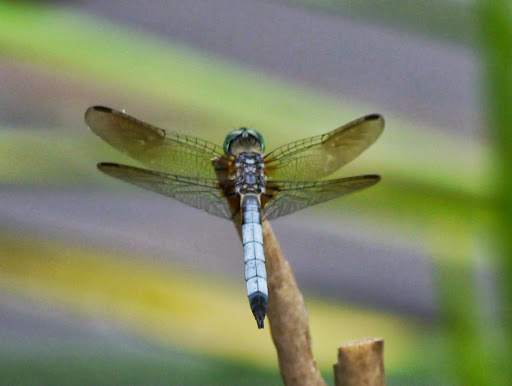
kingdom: Animalia
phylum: Arthropoda
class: Insecta
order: Odonata
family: Libellulidae
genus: Pachydiplax
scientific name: Pachydiplax longipennis
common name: Blue dasher
